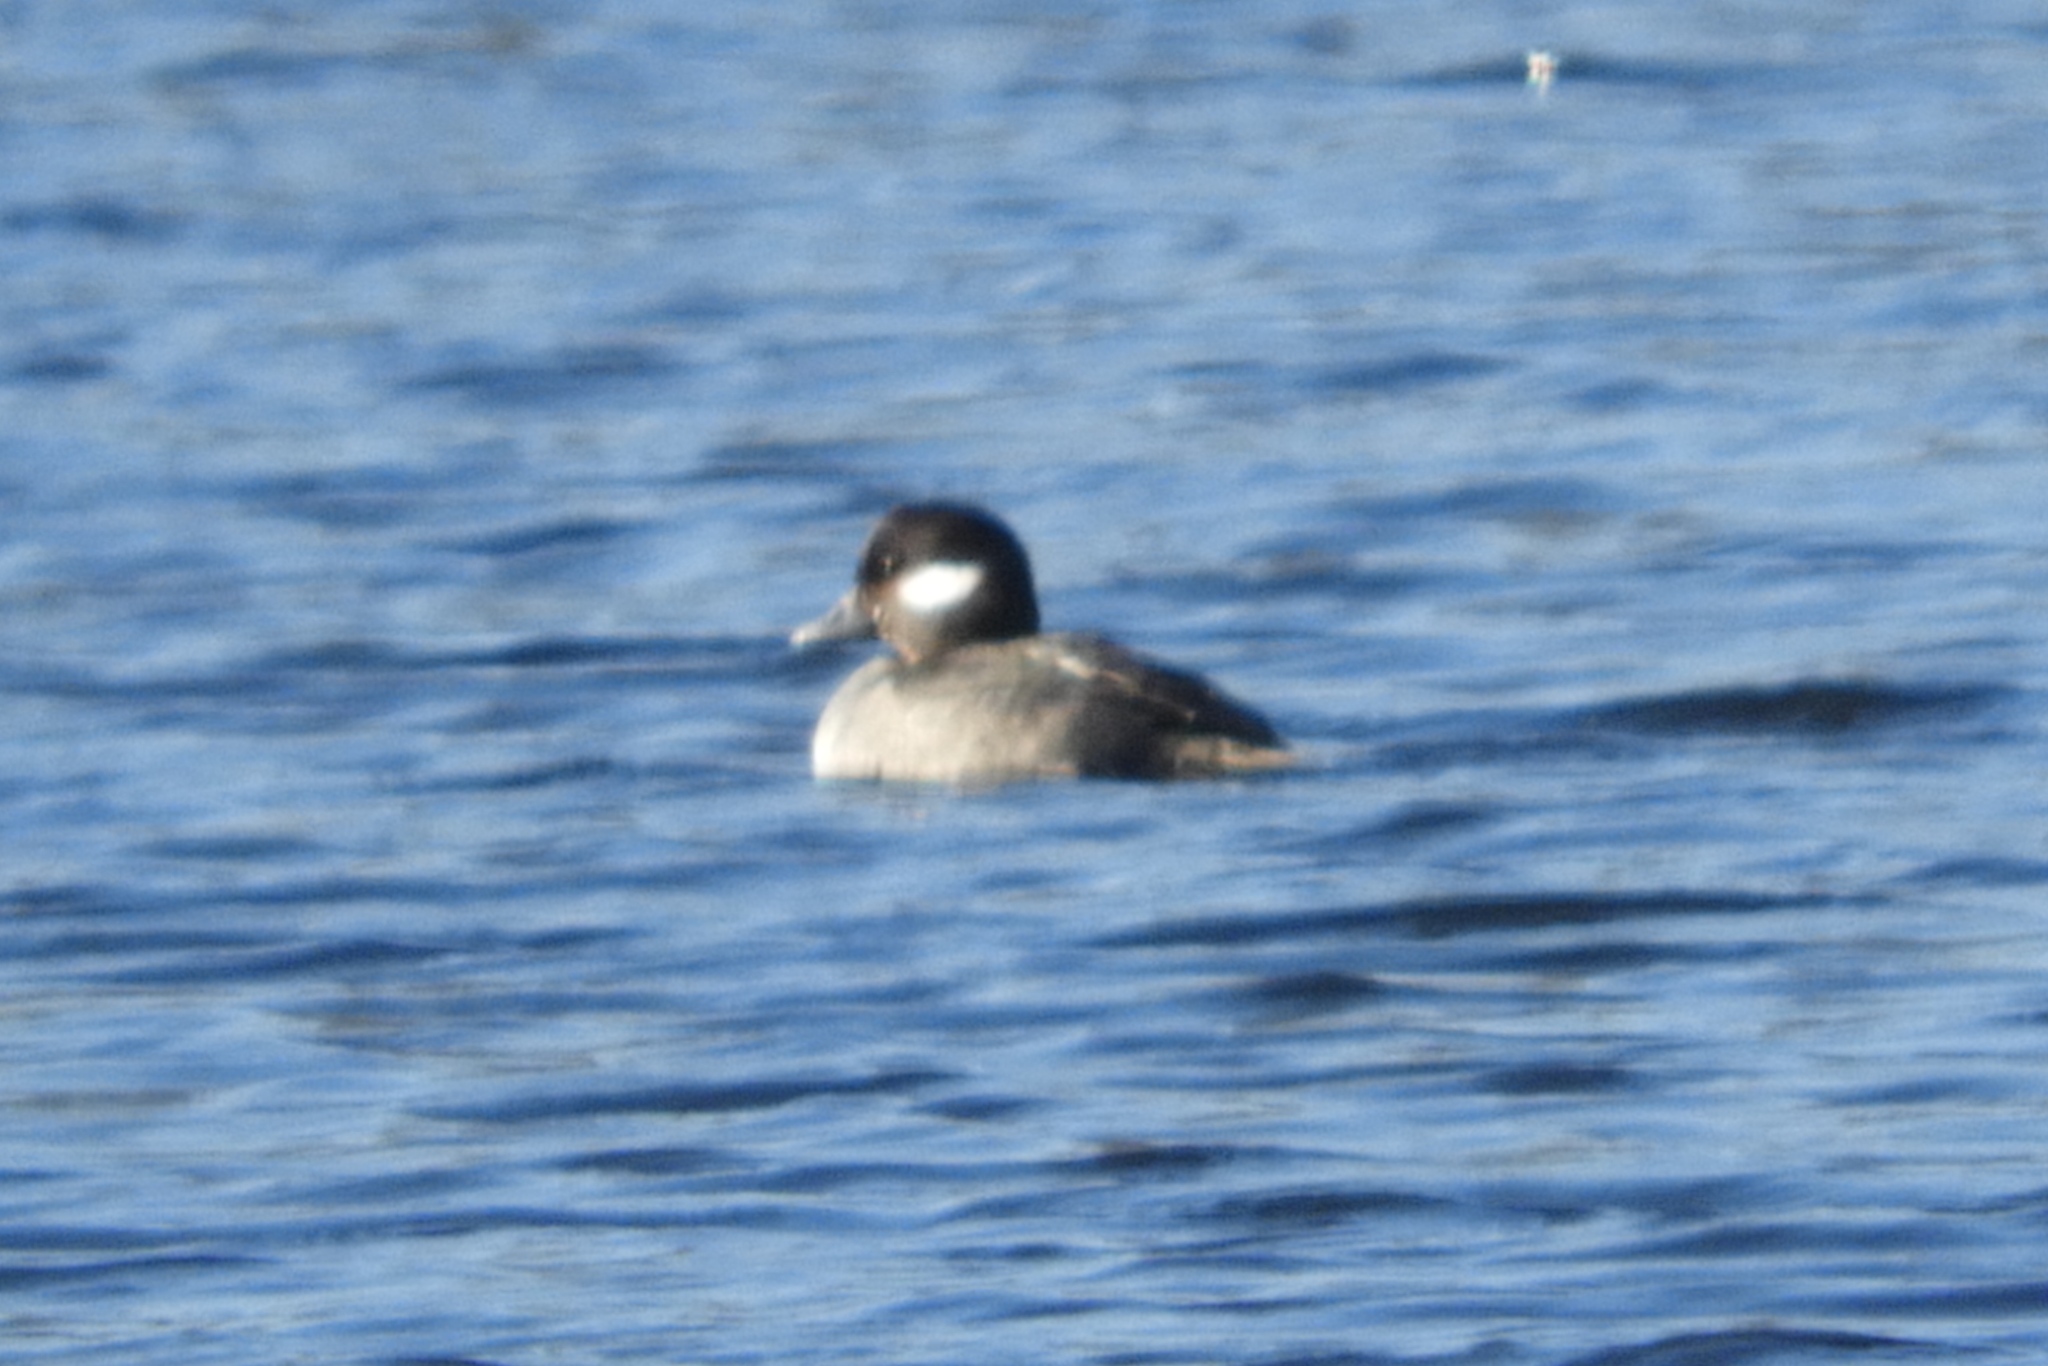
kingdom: Animalia
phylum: Chordata
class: Aves
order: Anseriformes
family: Anatidae
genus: Bucephala
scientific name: Bucephala albeola
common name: Bufflehead
